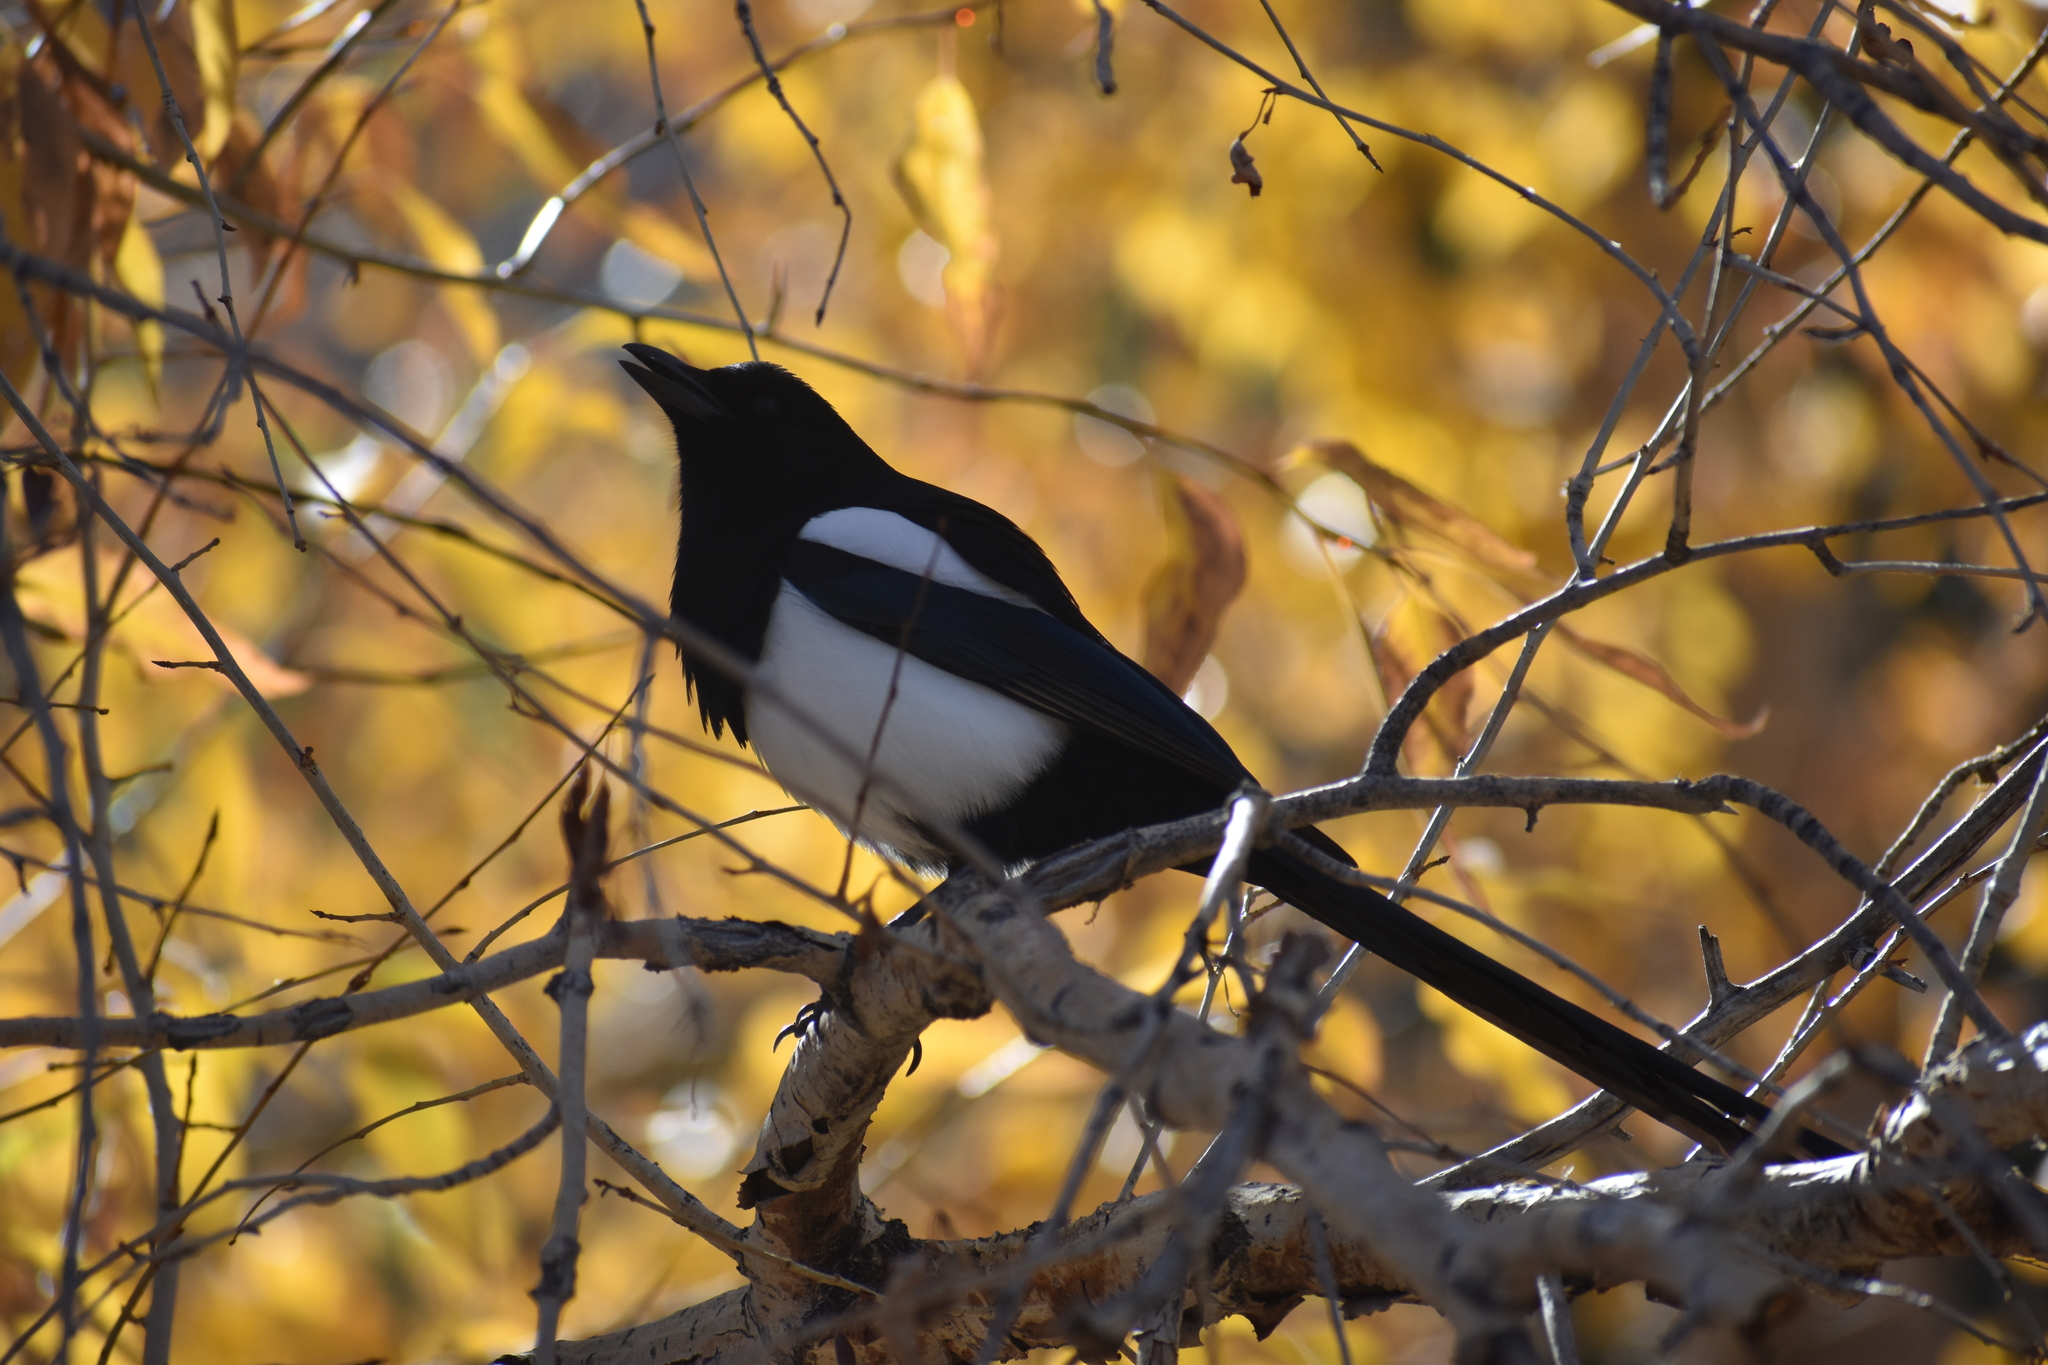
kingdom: Animalia
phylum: Chordata
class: Aves
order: Passeriformes
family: Corvidae
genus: Pica
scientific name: Pica hudsonia
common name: Black-billed magpie
